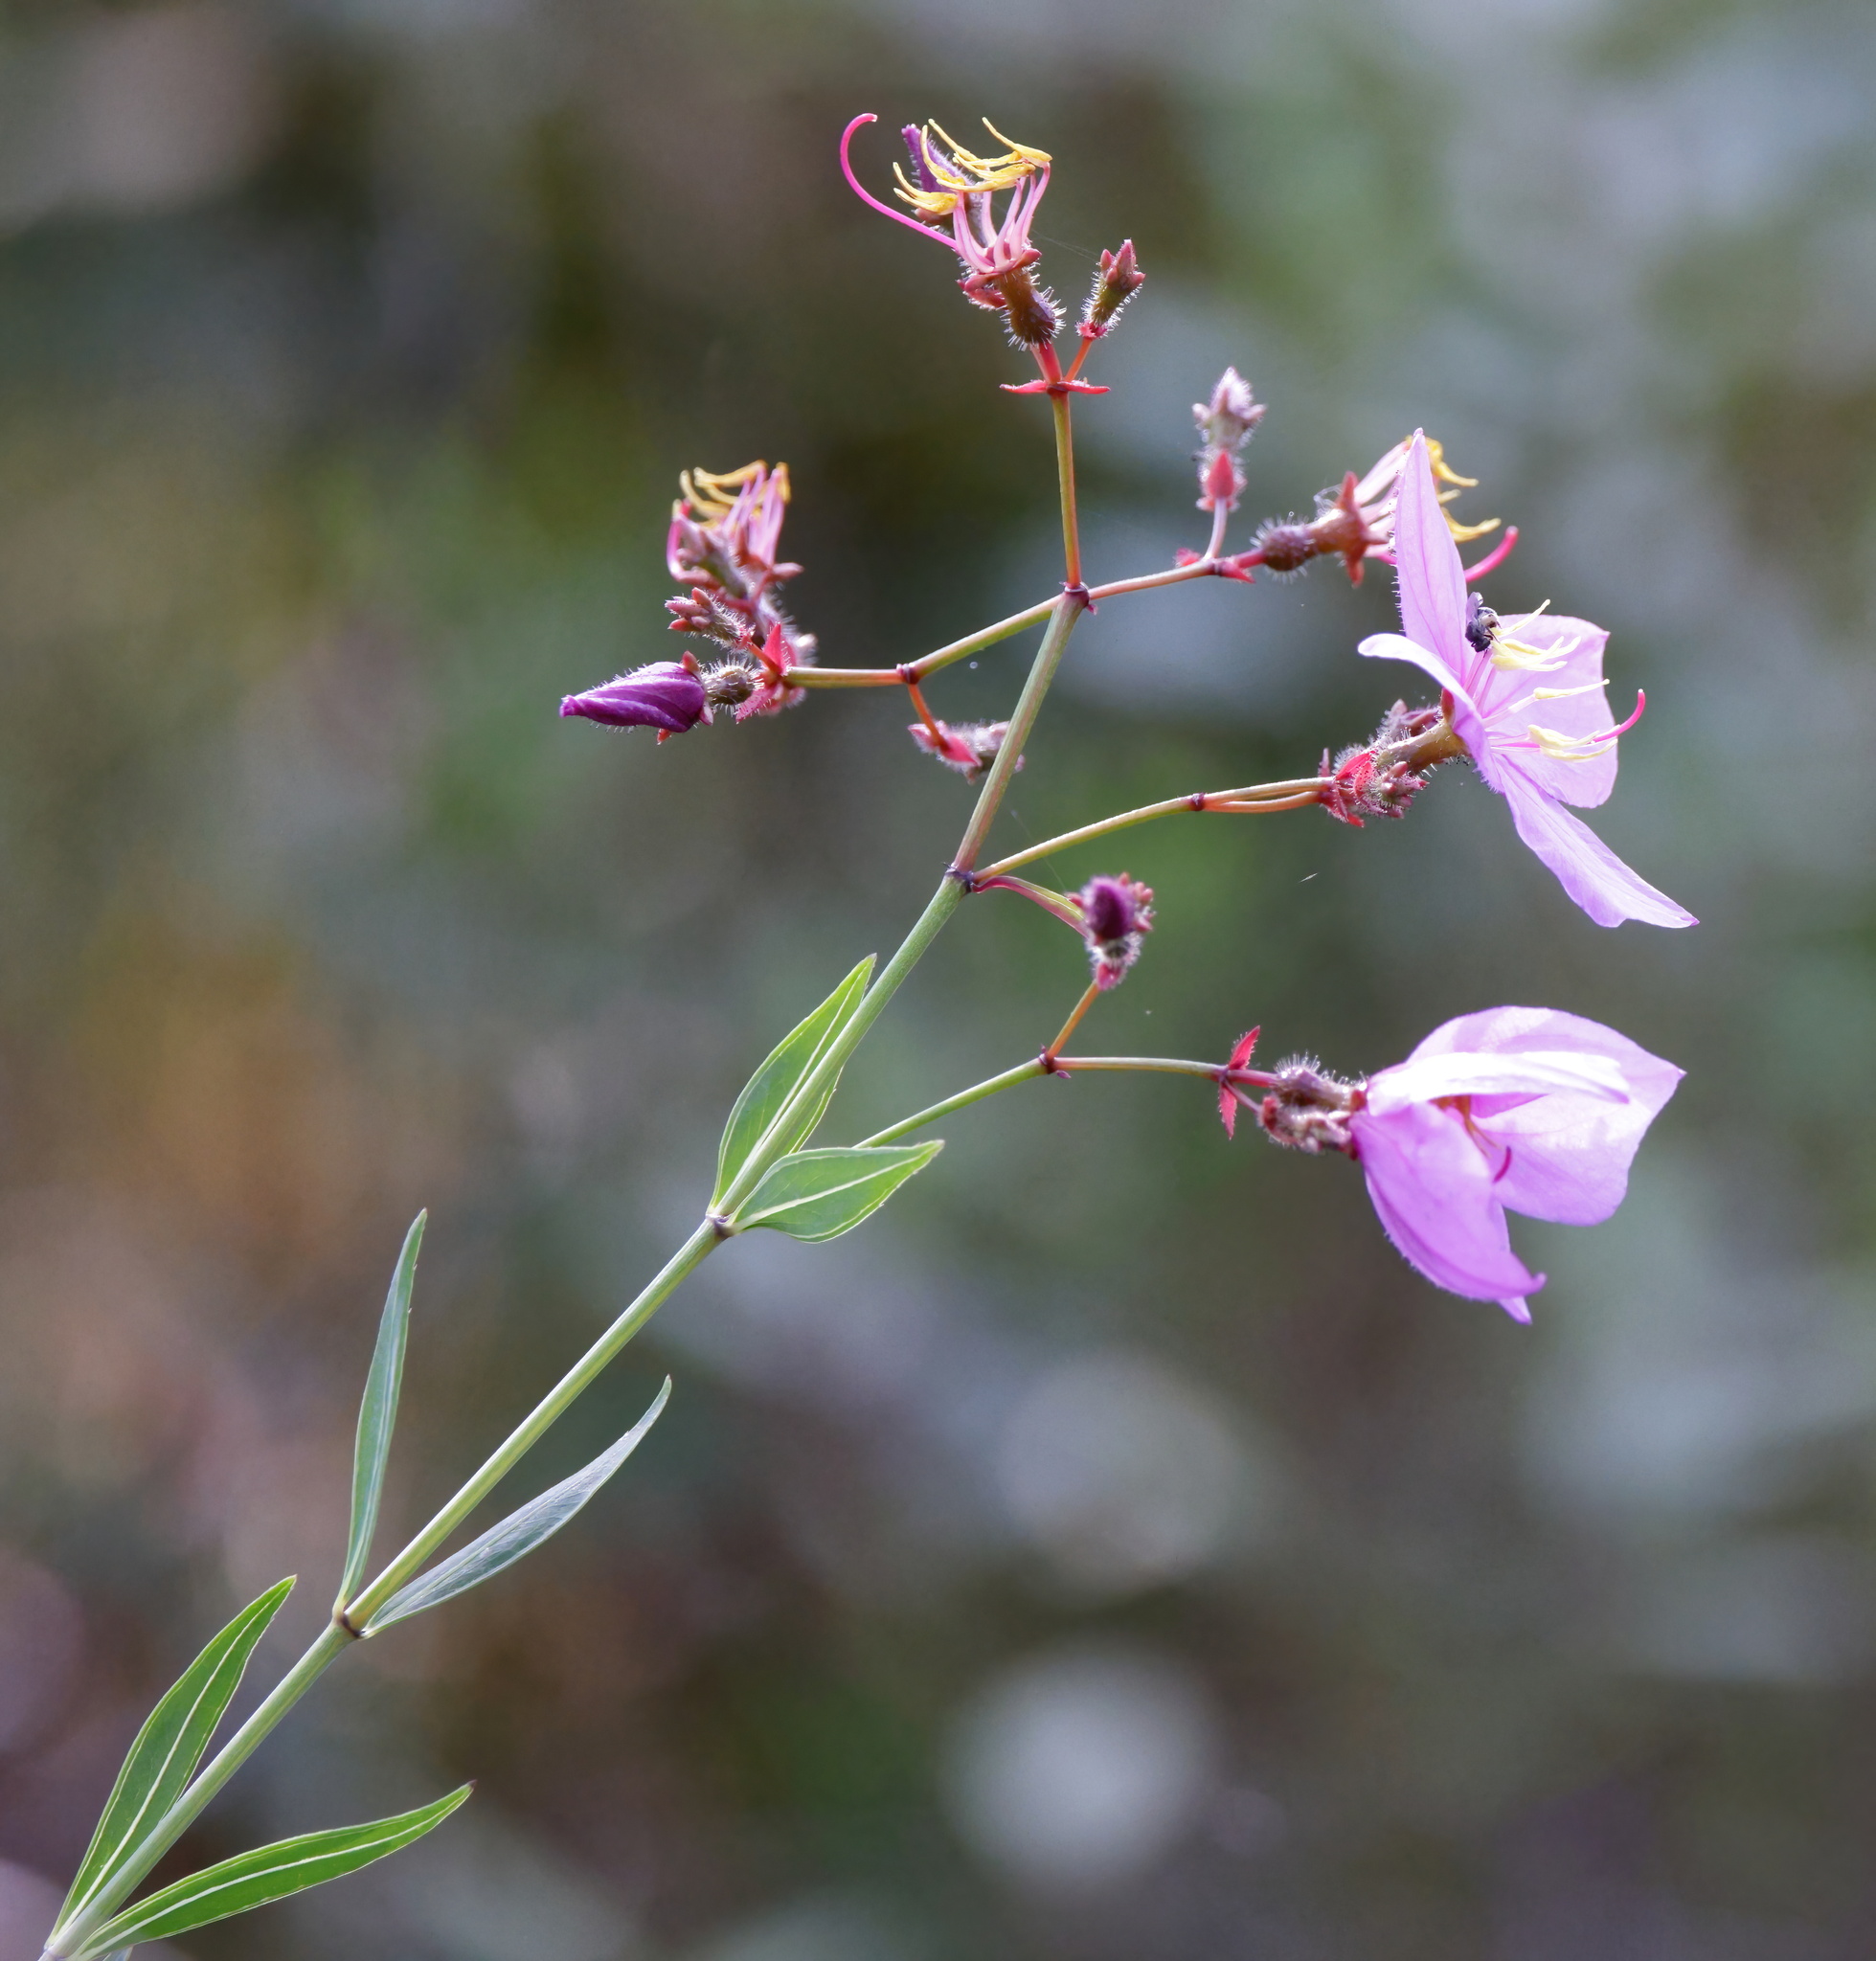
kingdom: Plantae
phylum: Tracheophyta
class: Magnoliopsida
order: Myrtales
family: Melastomataceae
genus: Rhexia
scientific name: Rhexia alifanus
